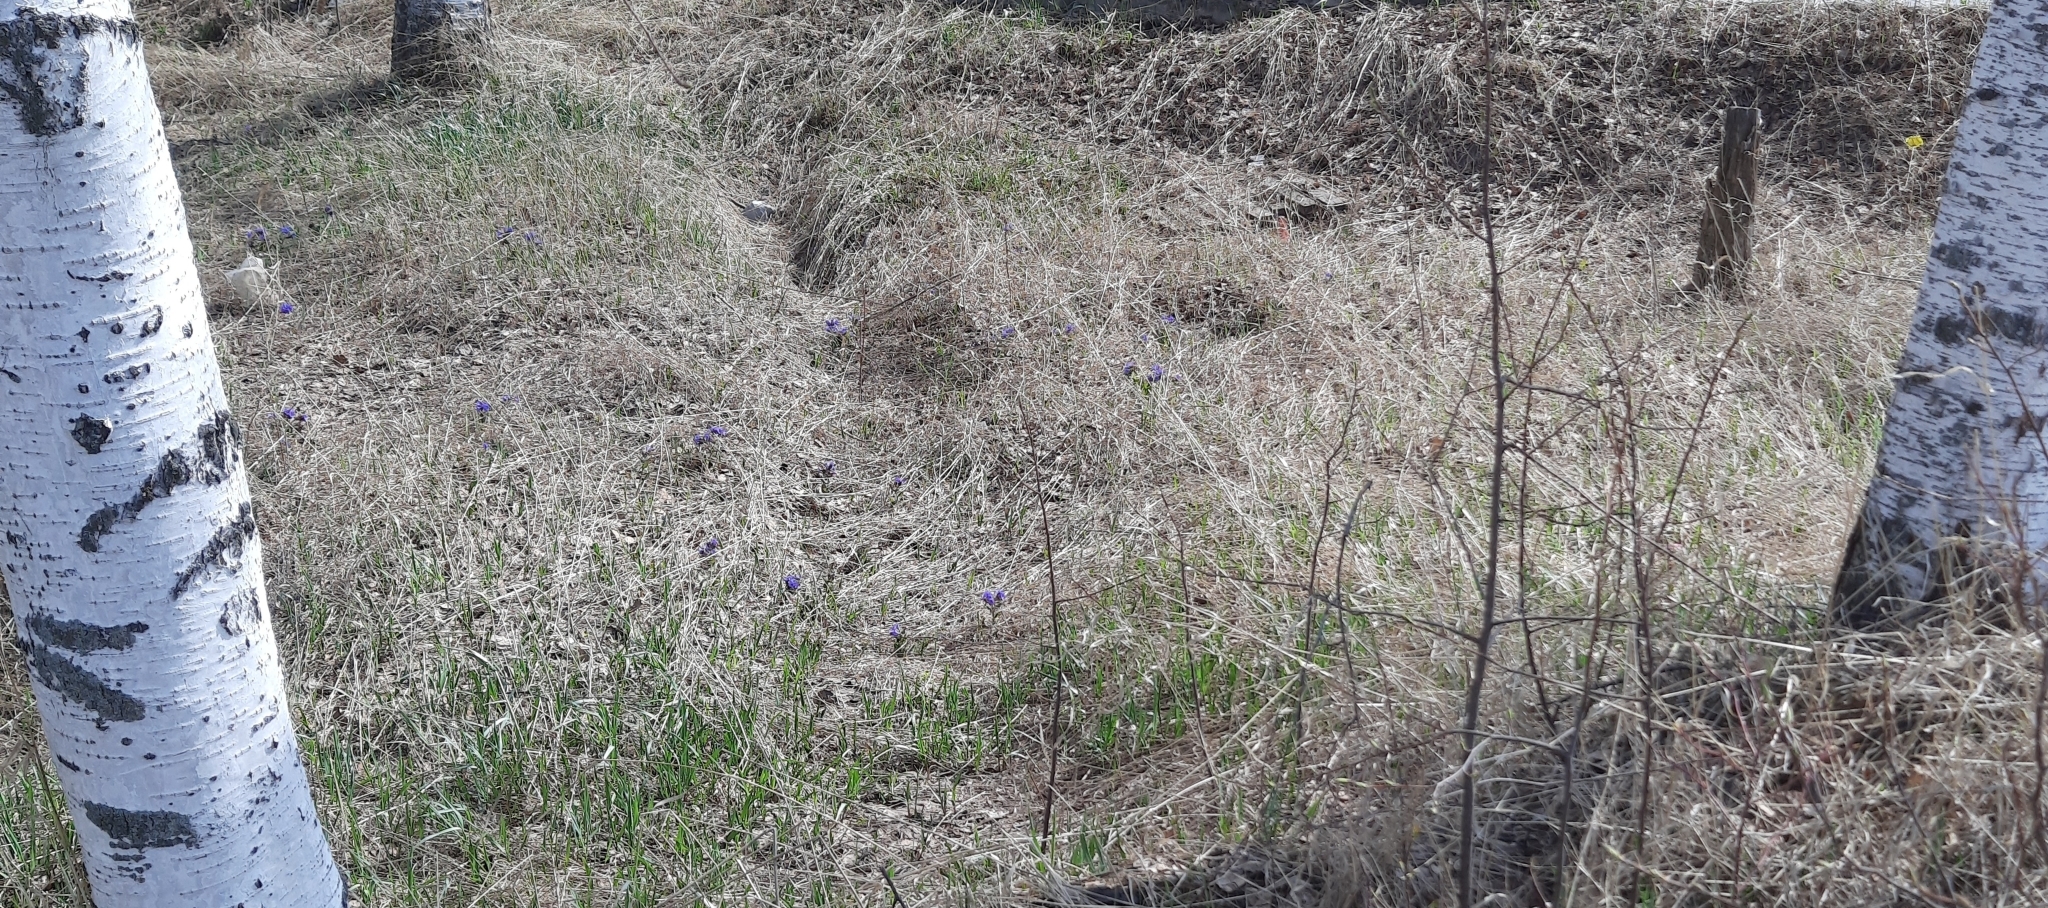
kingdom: Plantae
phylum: Tracheophyta
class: Magnoliopsida
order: Boraginales
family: Boraginaceae
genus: Pulmonaria
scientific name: Pulmonaria mollis
